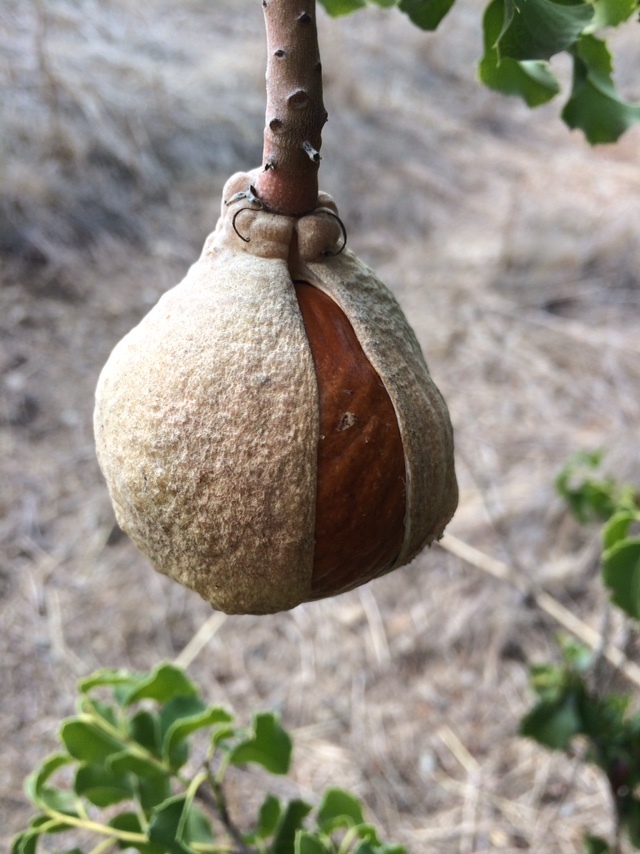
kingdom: Plantae
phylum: Tracheophyta
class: Magnoliopsida
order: Sapindales
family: Sapindaceae
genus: Aesculus
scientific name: Aesculus californica
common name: California buckeye
